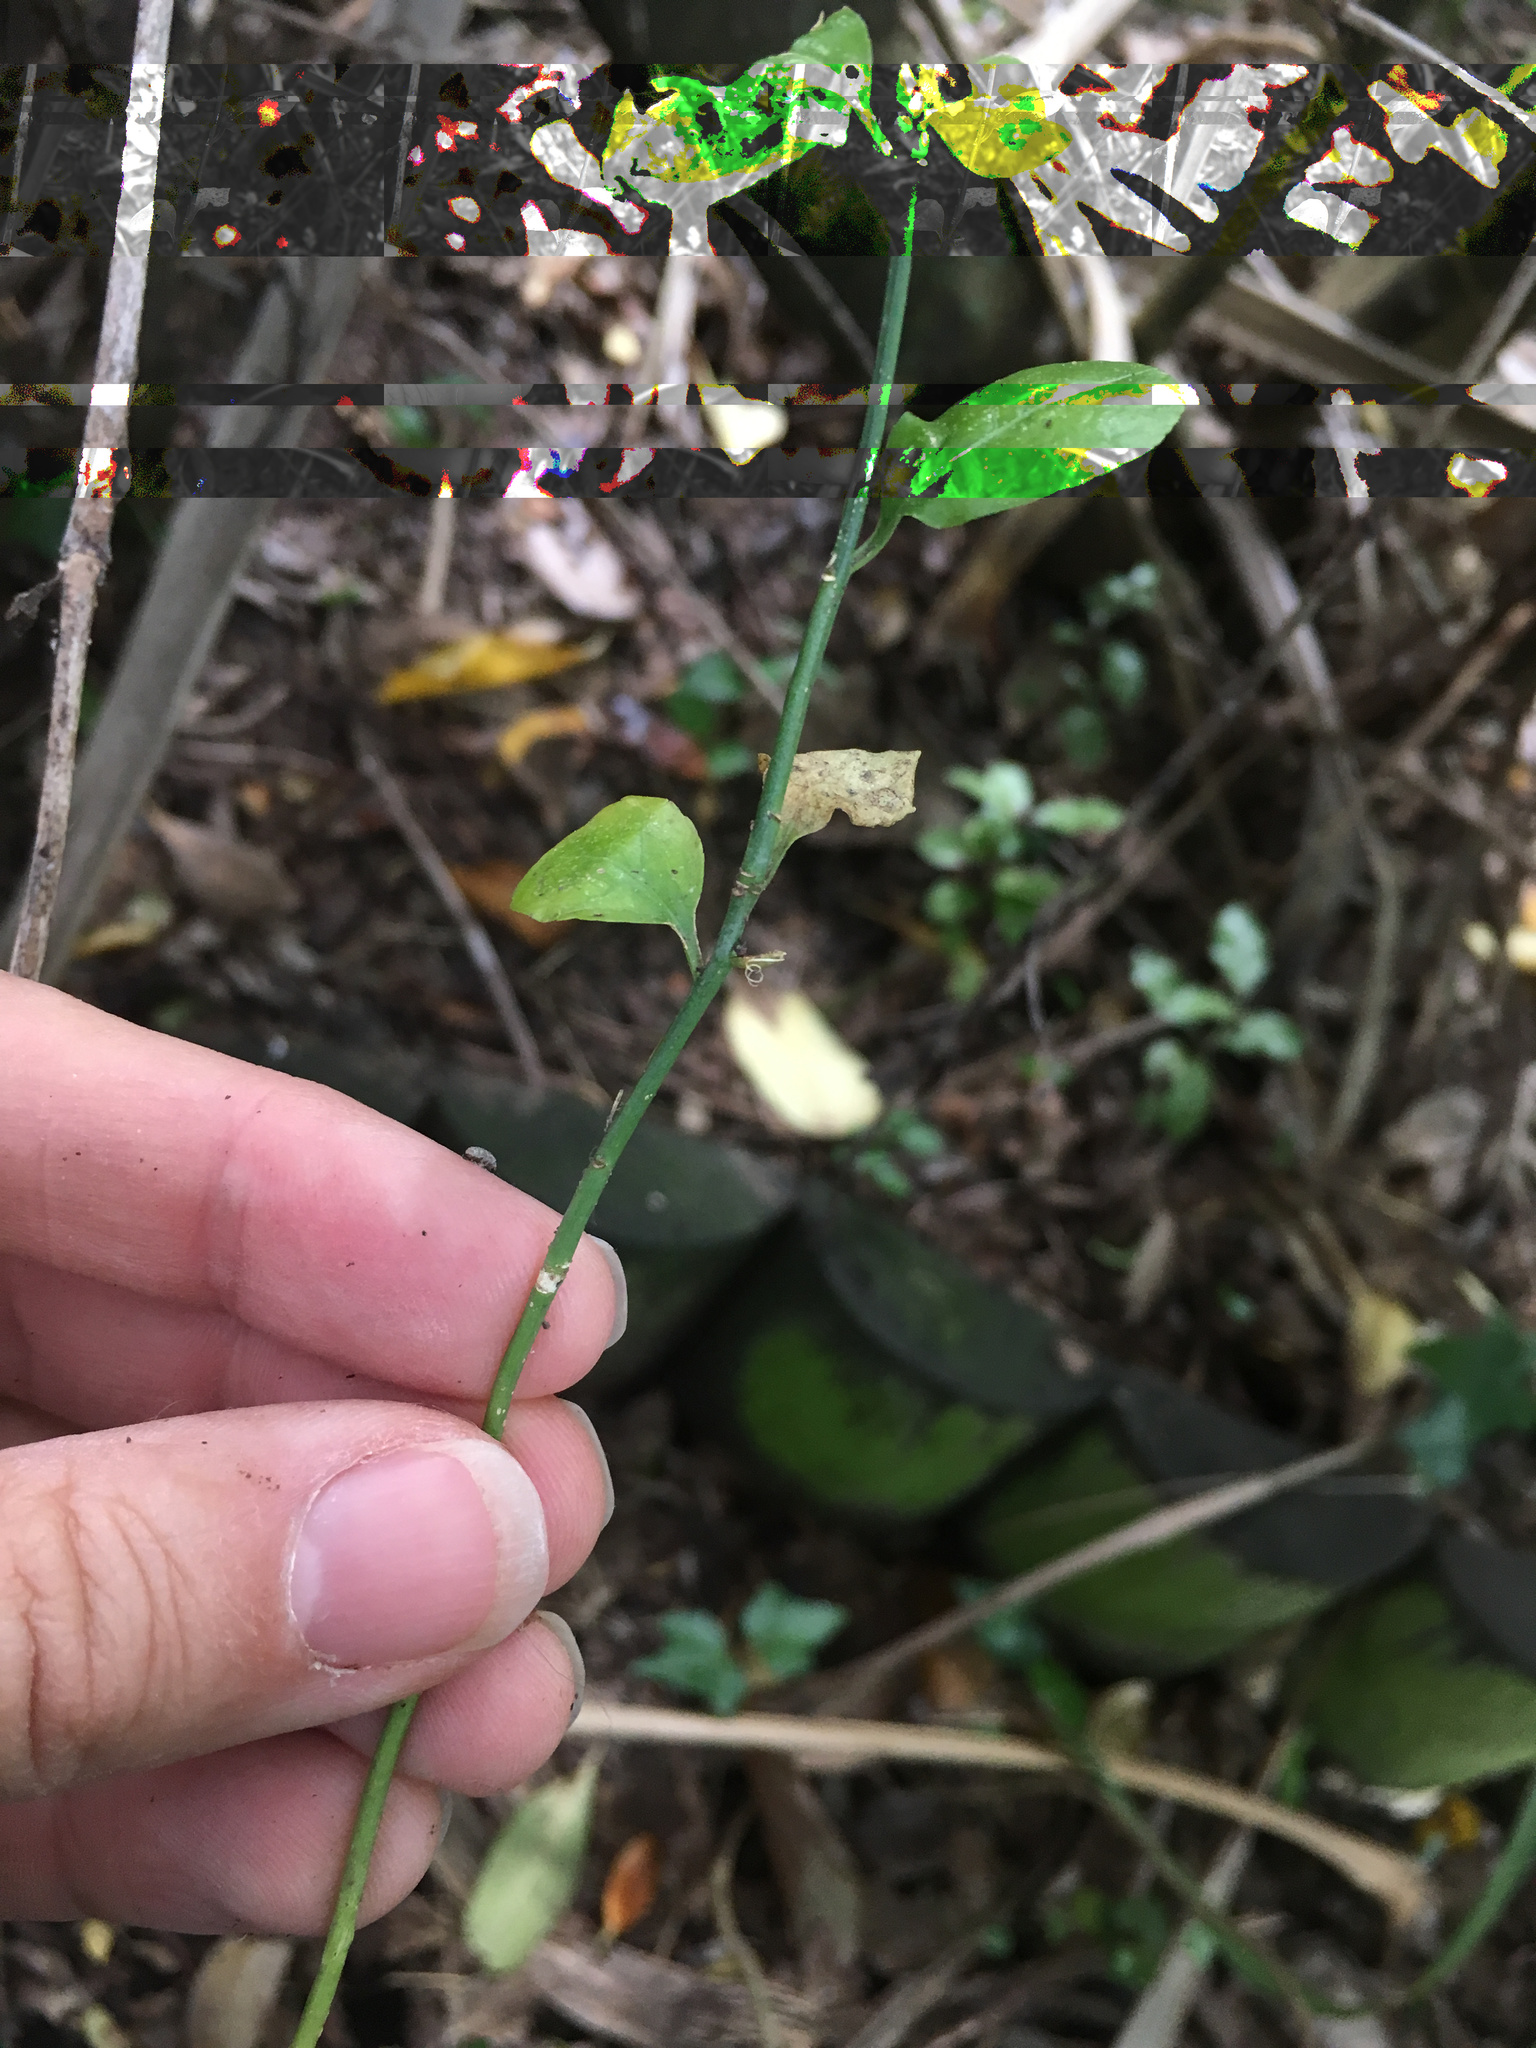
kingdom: Plantae
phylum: Tracheophyta
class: Magnoliopsida
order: Celastrales
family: Celastraceae
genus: Euonymus
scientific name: Euonymus europaeus
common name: Spindle
